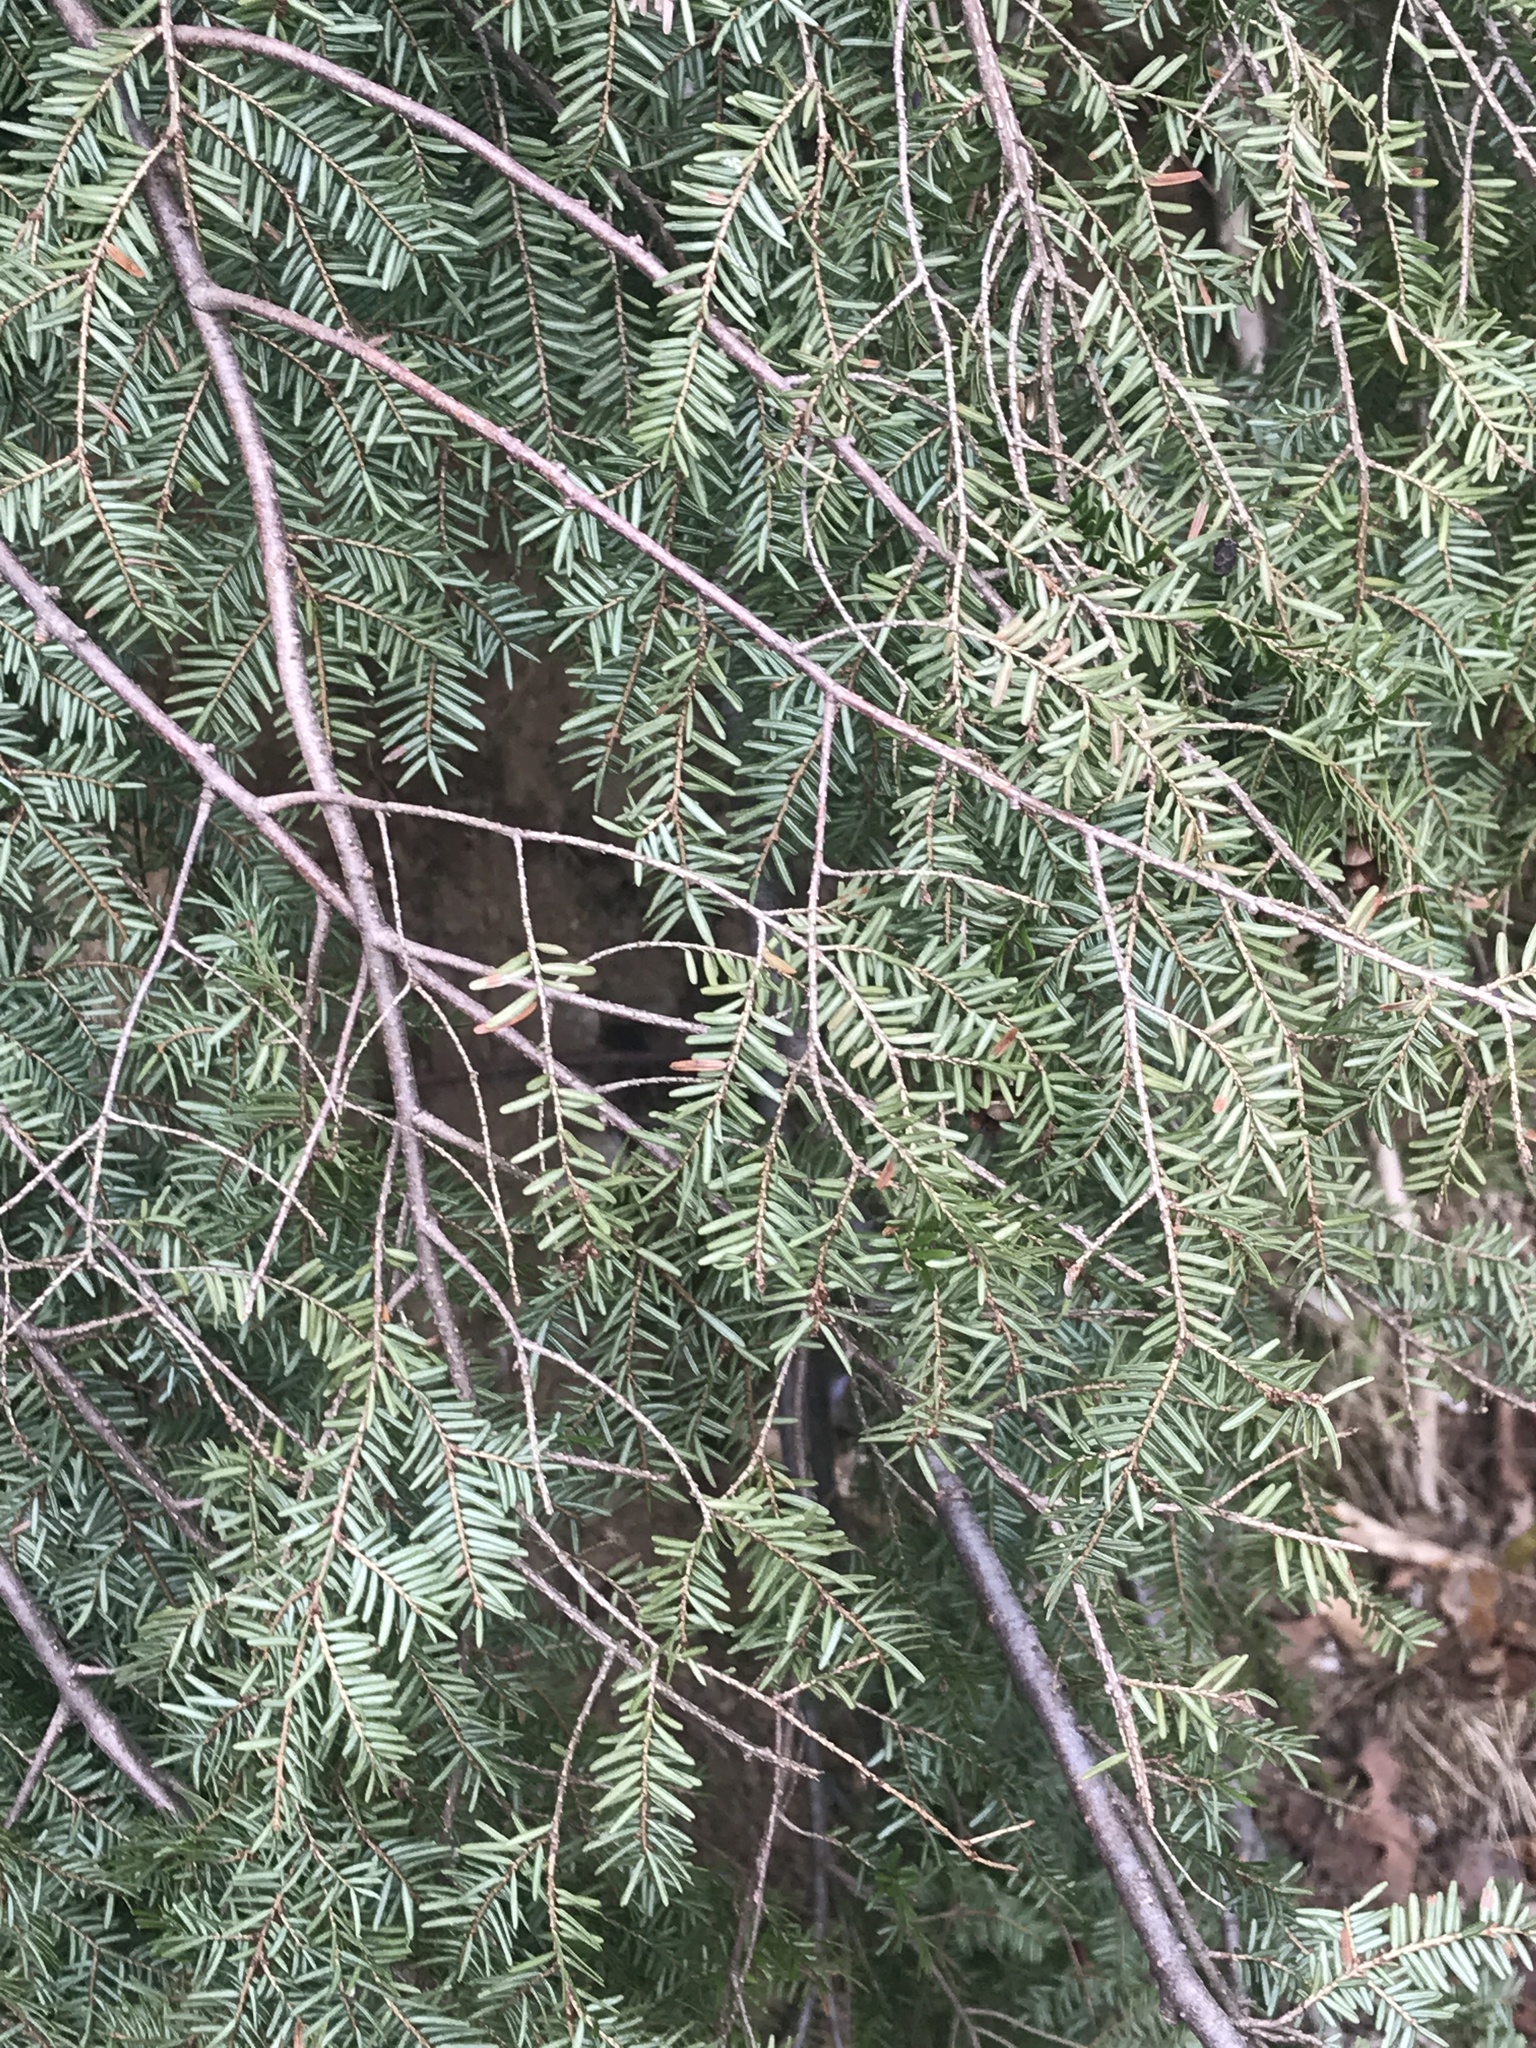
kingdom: Plantae
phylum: Tracheophyta
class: Pinopsida
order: Pinales
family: Pinaceae
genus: Tsuga
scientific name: Tsuga canadensis
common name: Eastern hemlock
